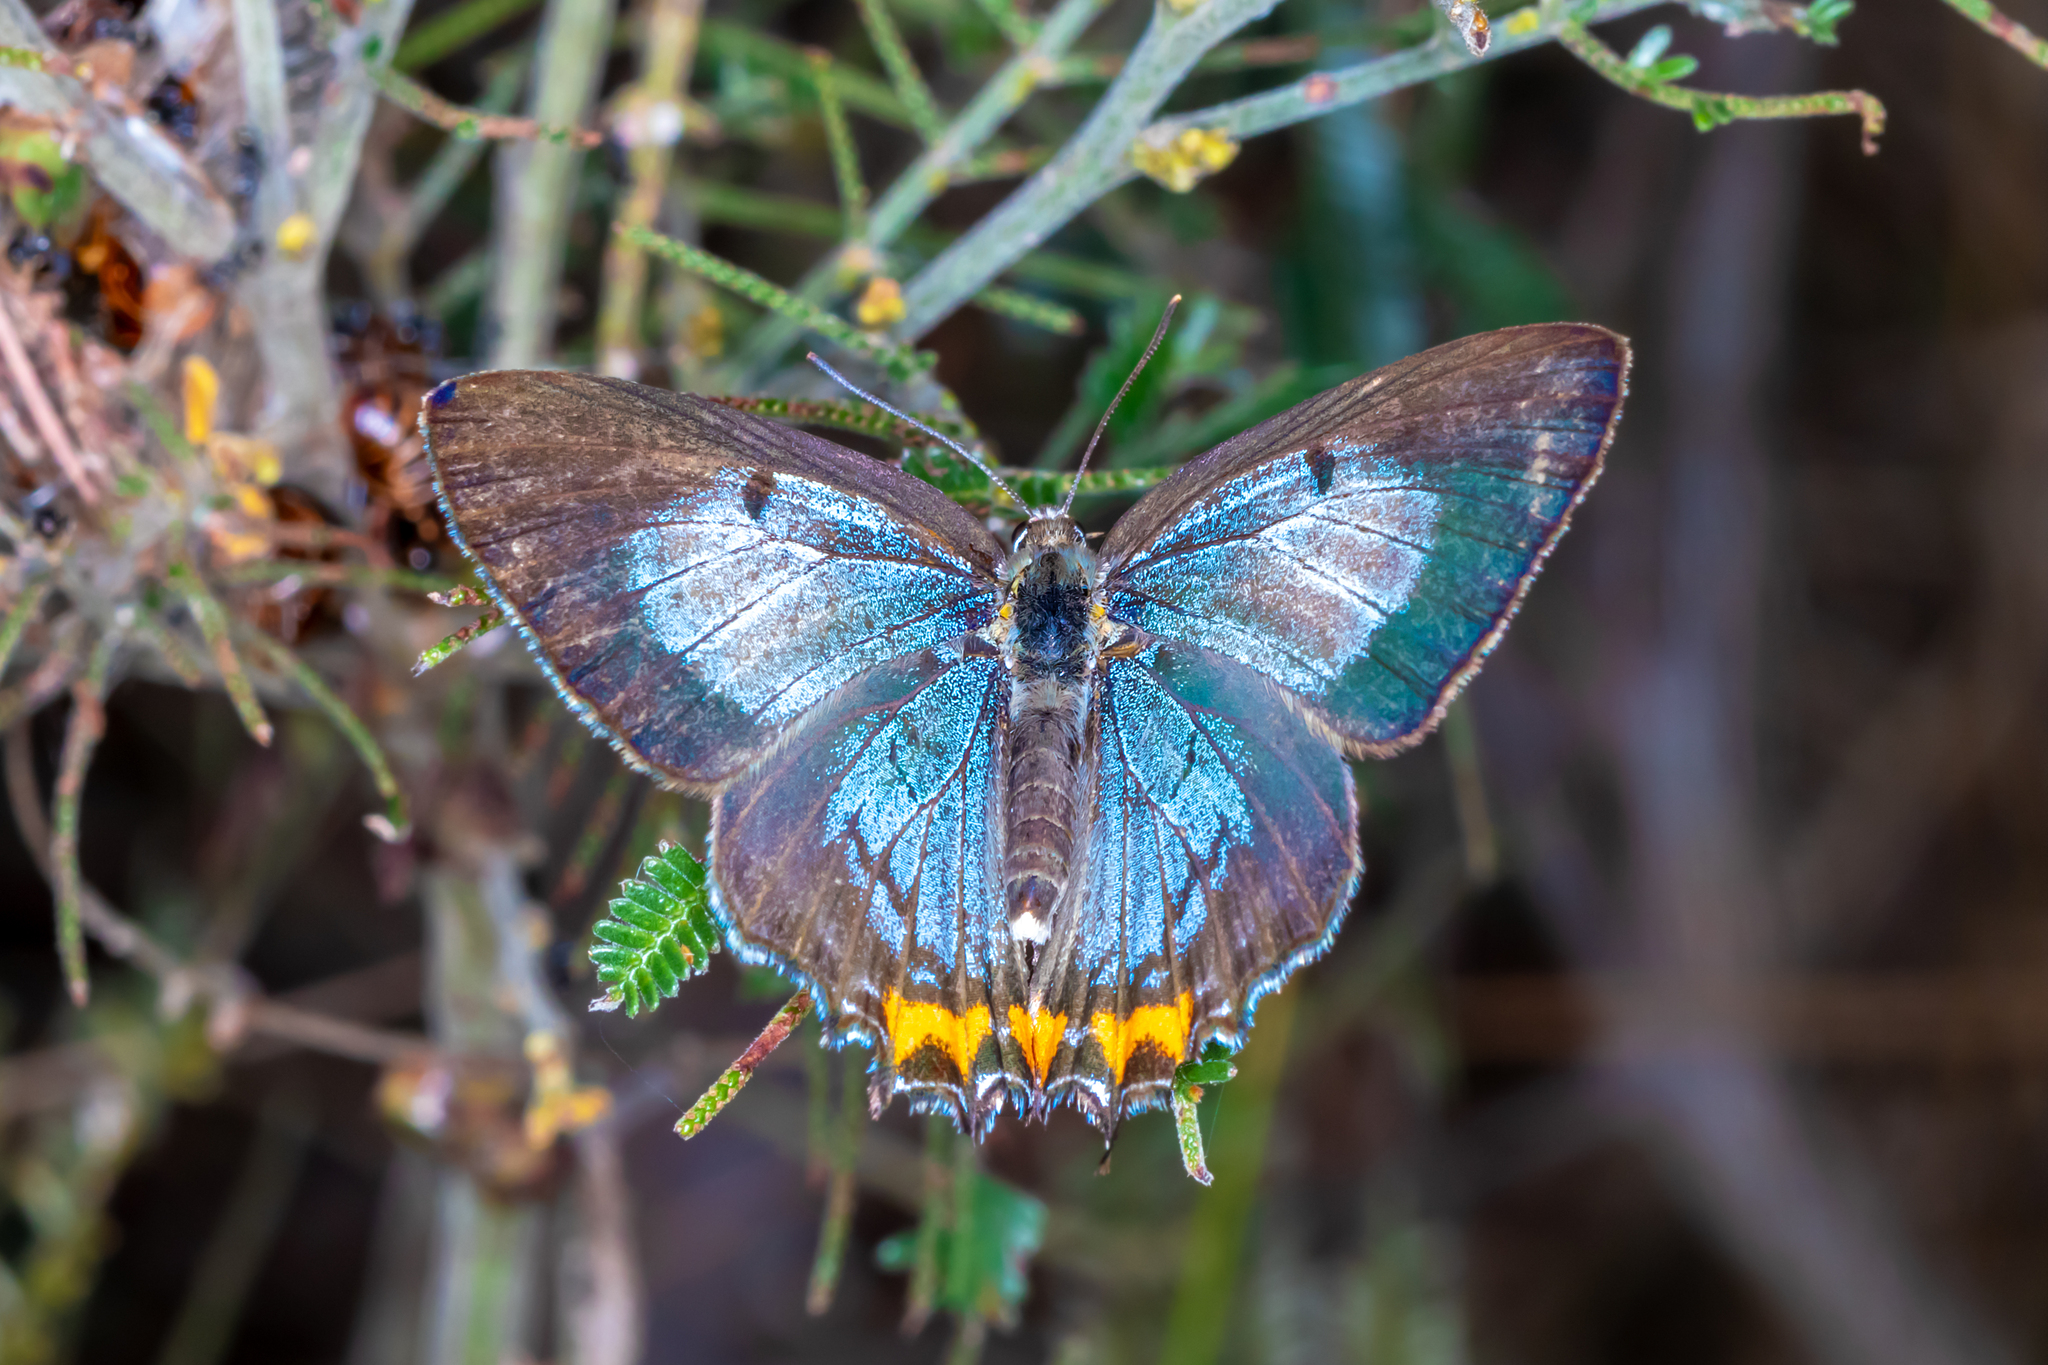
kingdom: Animalia
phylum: Arthropoda
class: Insecta
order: Lepidoptera
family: Lycaenidae
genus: Jalmenus
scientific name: Jalmenus evagoras
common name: Common imperial blue
